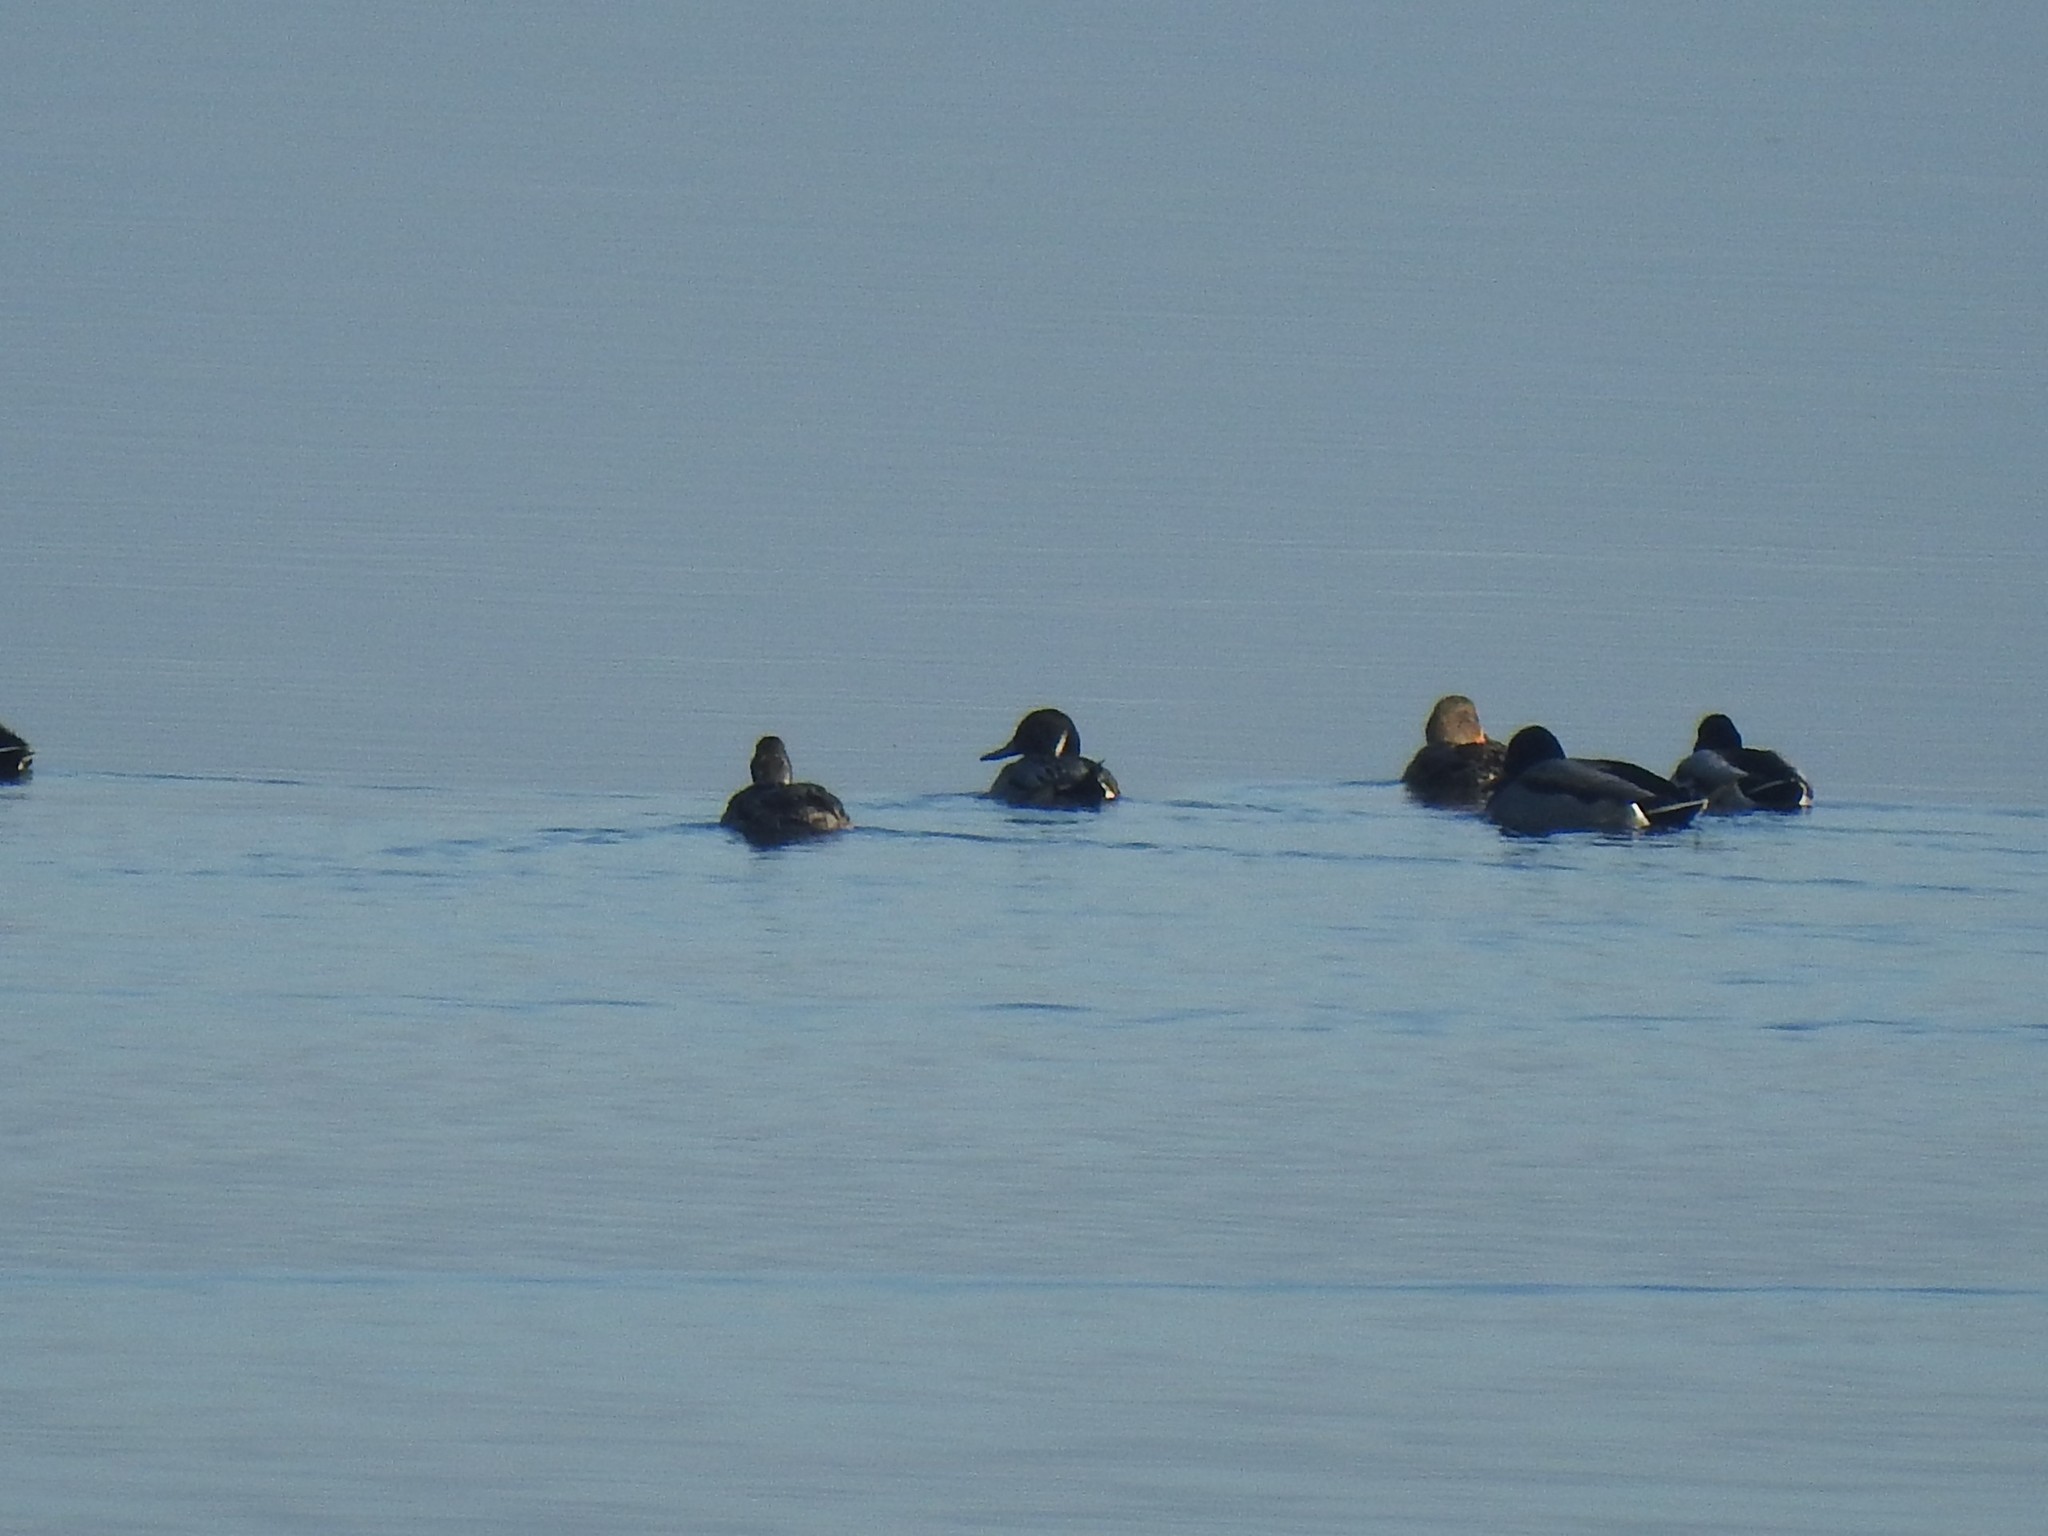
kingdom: Animalia
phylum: Chordata
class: Aves
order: Anseriformes
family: Anatidae
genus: Anas
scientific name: Anas acuta
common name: Northern pintail
